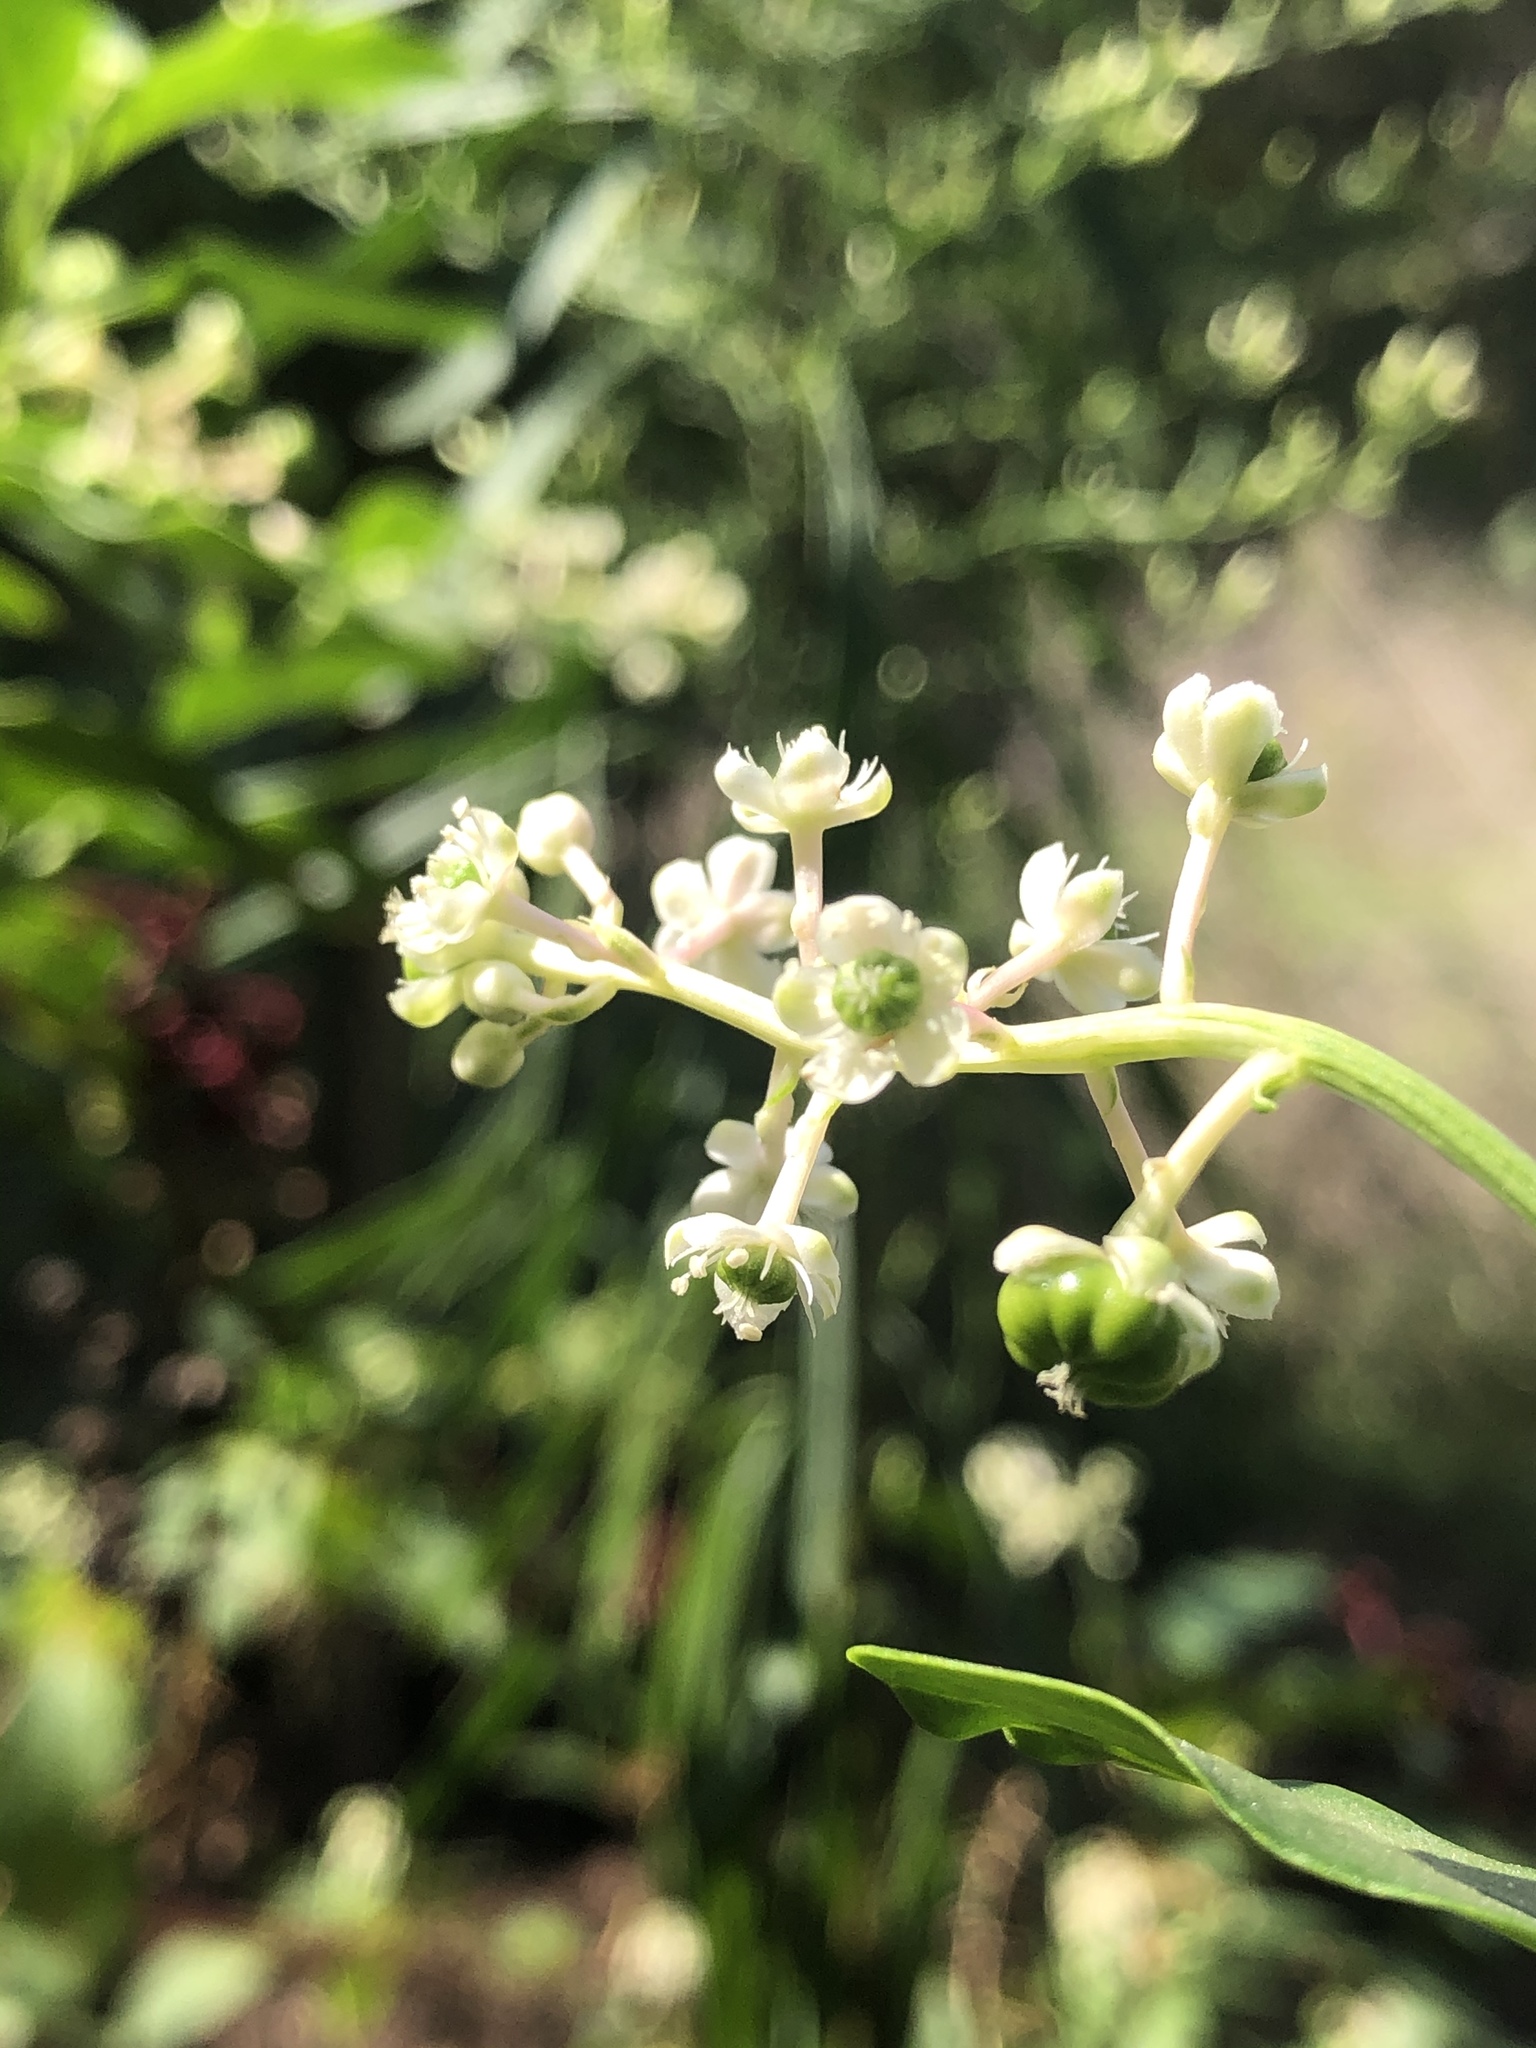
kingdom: Plantae
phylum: Tracheophyta
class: Magnoliopsida
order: Caryophyllales
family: Phytolaccaceae
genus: Phytolacca
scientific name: Phytolacca americana
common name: American pokeweed
